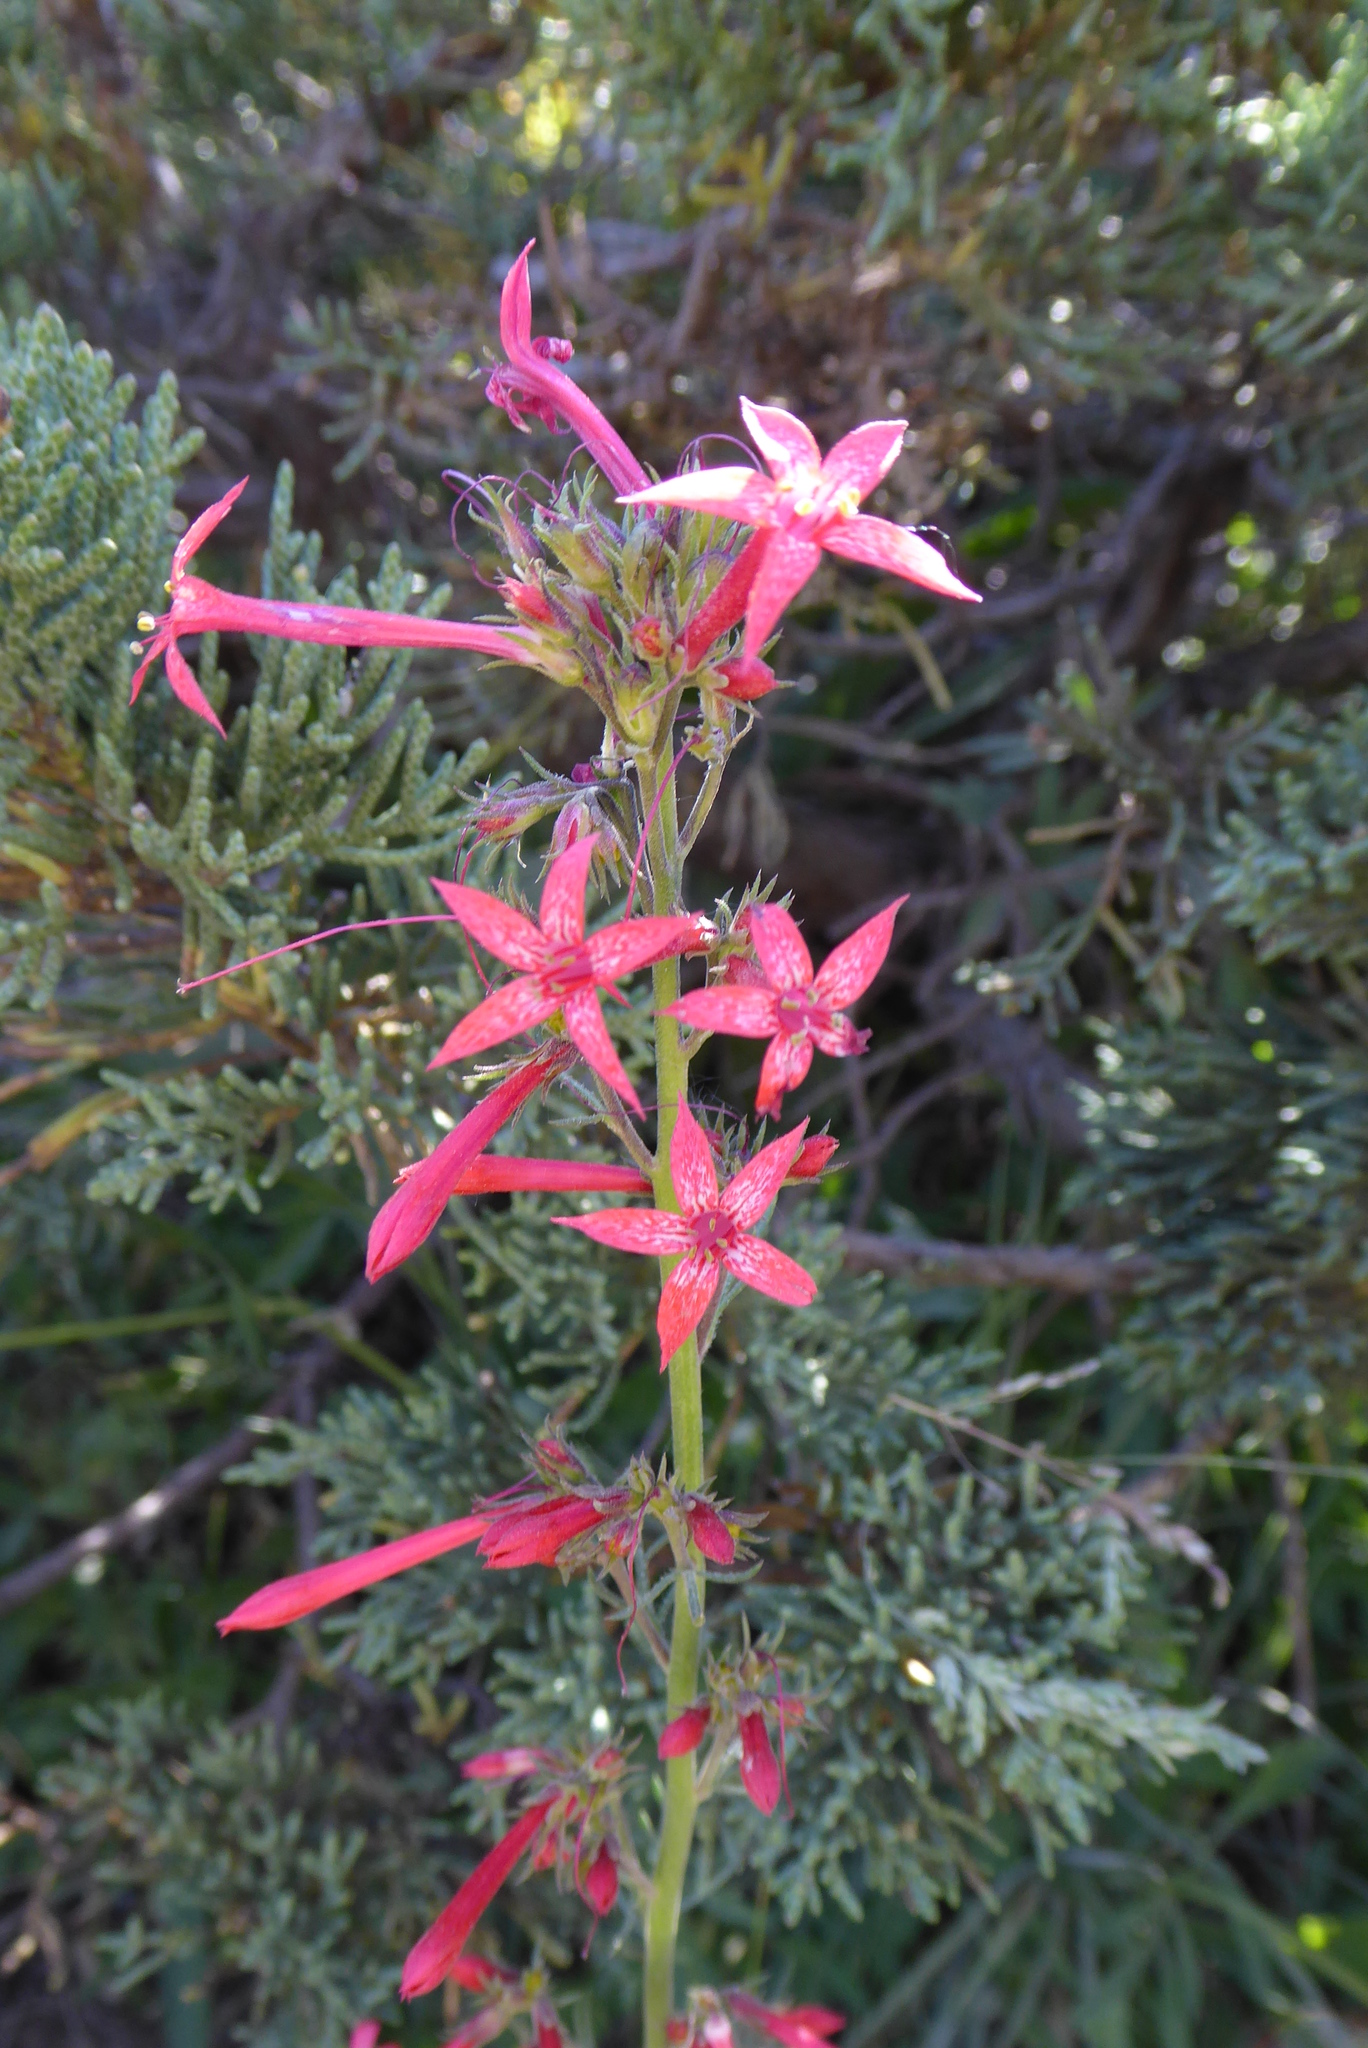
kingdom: Plantae
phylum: Tracheophyta
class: Magnoliopsida
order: Ericales
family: Polemoniaceae
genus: Ipomopsis
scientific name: Ipomopsis aggregata
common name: Scarlet gilia
